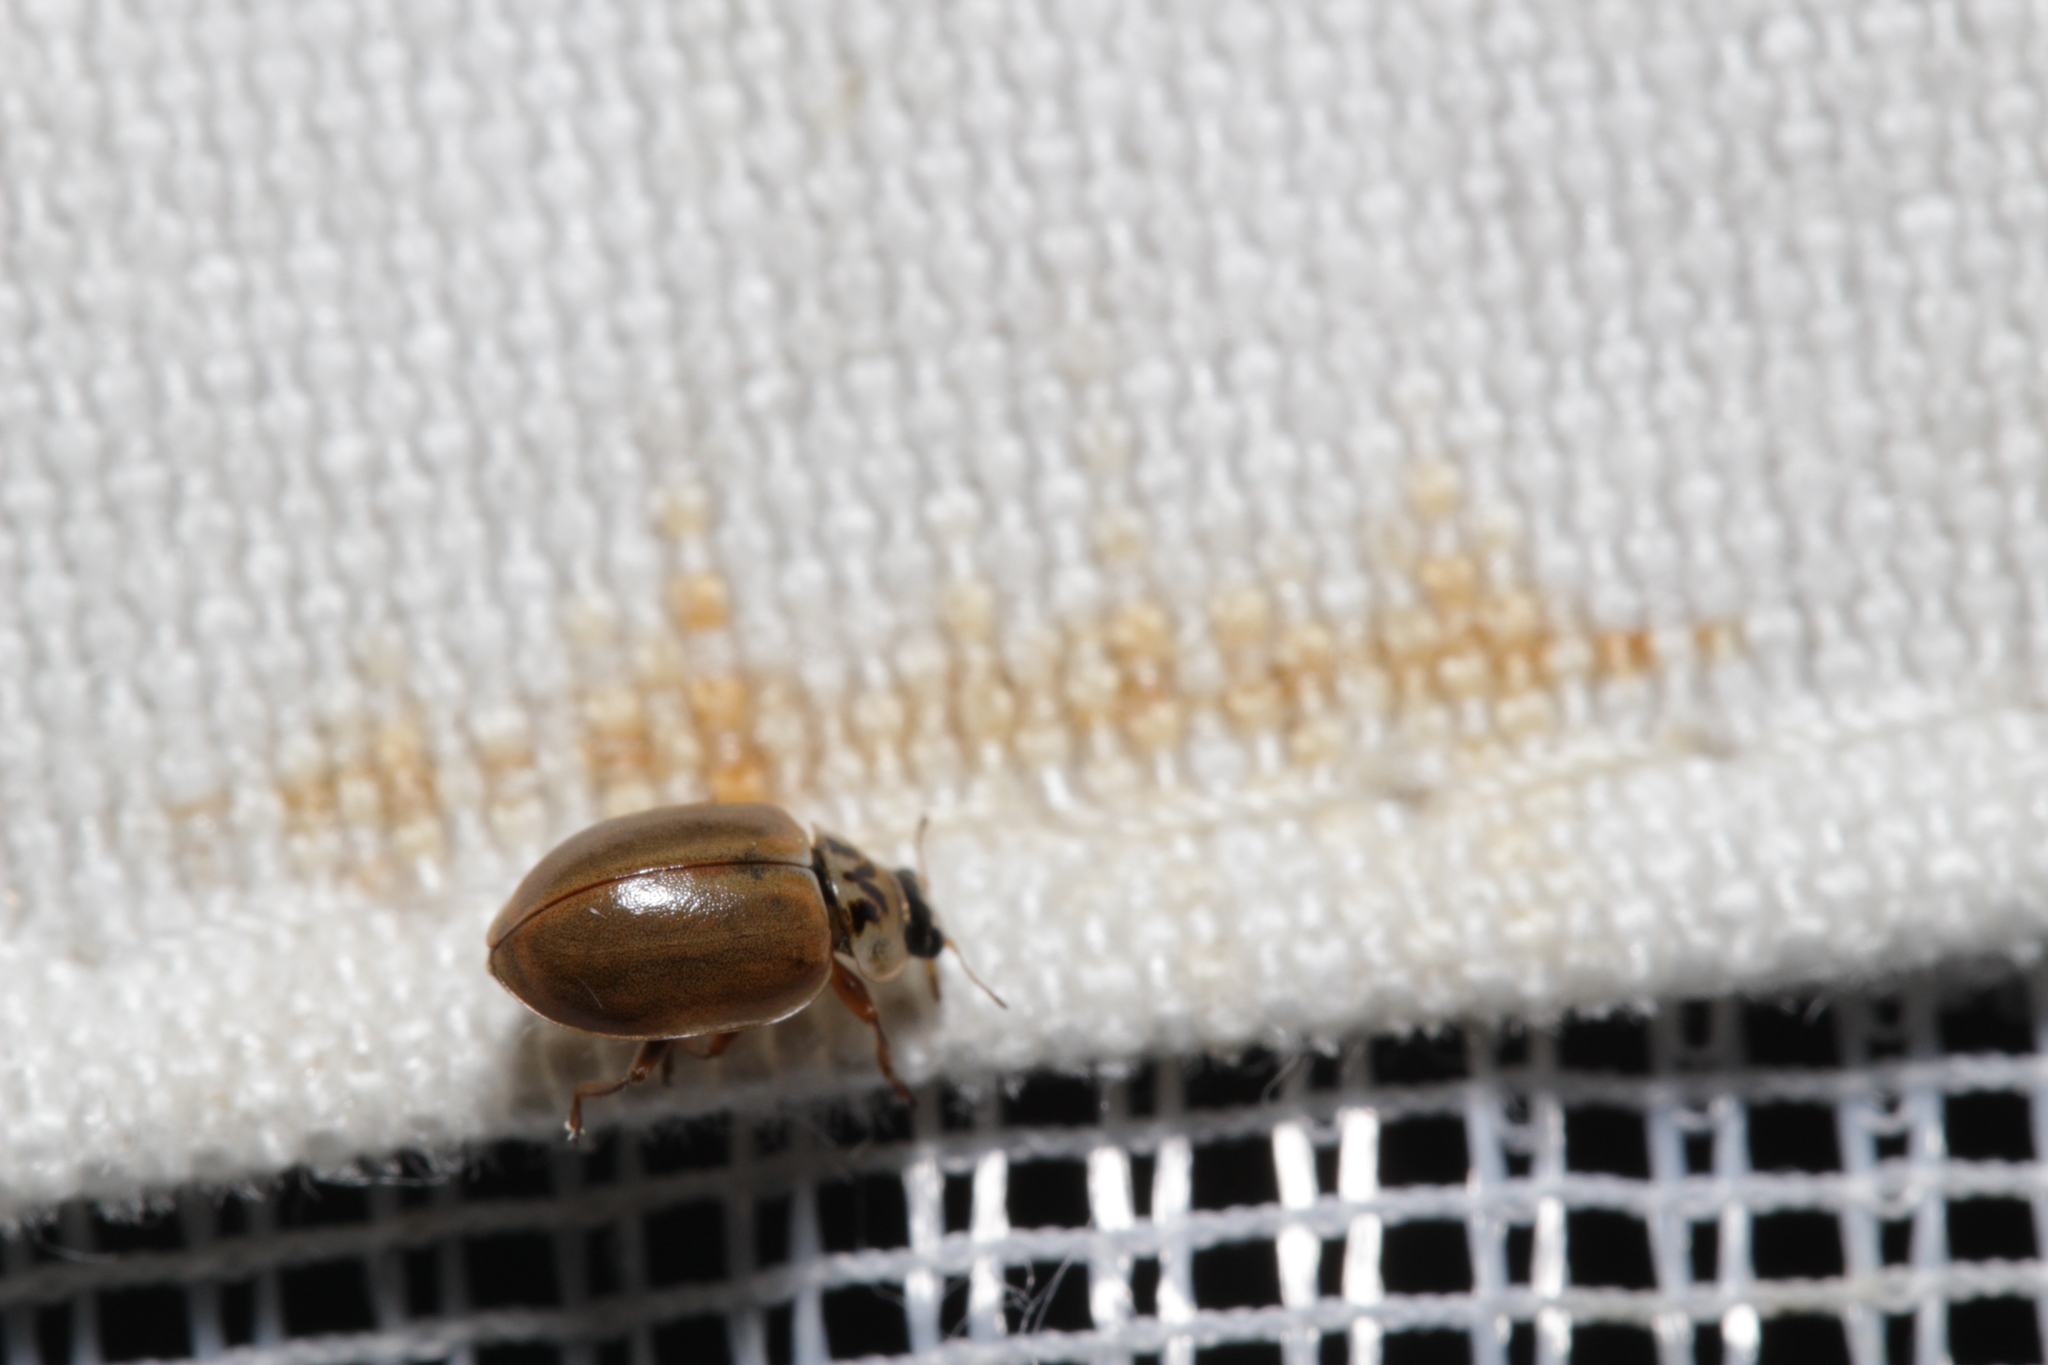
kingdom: Animalia
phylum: Arthropoda
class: Insecta
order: Coleoptera
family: Coccinellidae
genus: Aphidecta
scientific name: Aphidecta obliterata
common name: Larch ladybird
